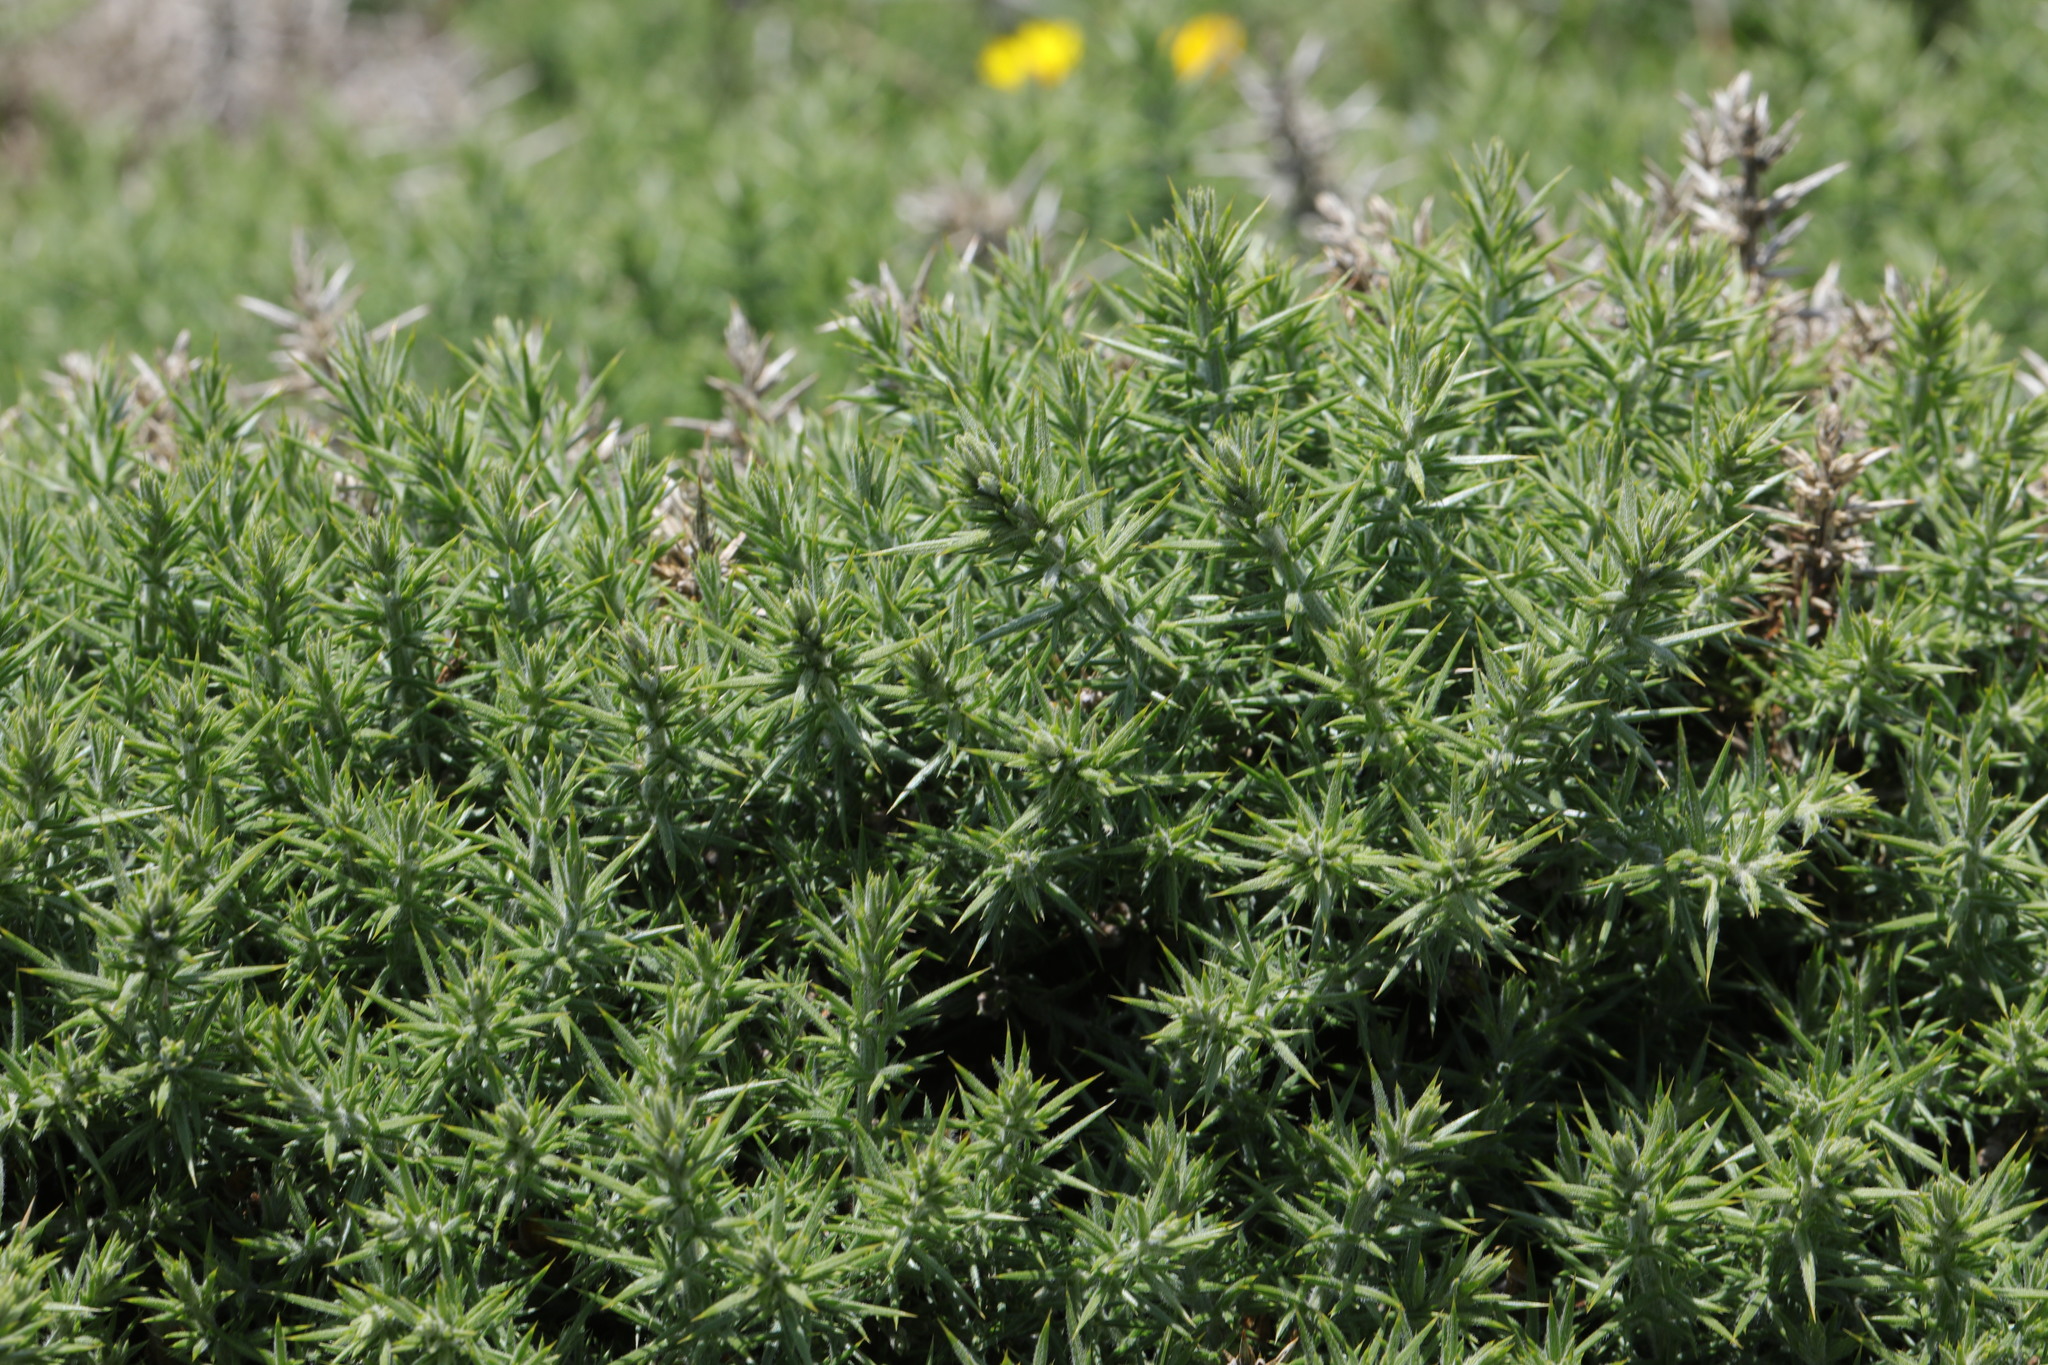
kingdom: Plantae
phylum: Tracheophyta
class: Magnoliopsida
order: Fabales
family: Fabaceae
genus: Ulex
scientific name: Ulex europaeus
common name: Common gorse
